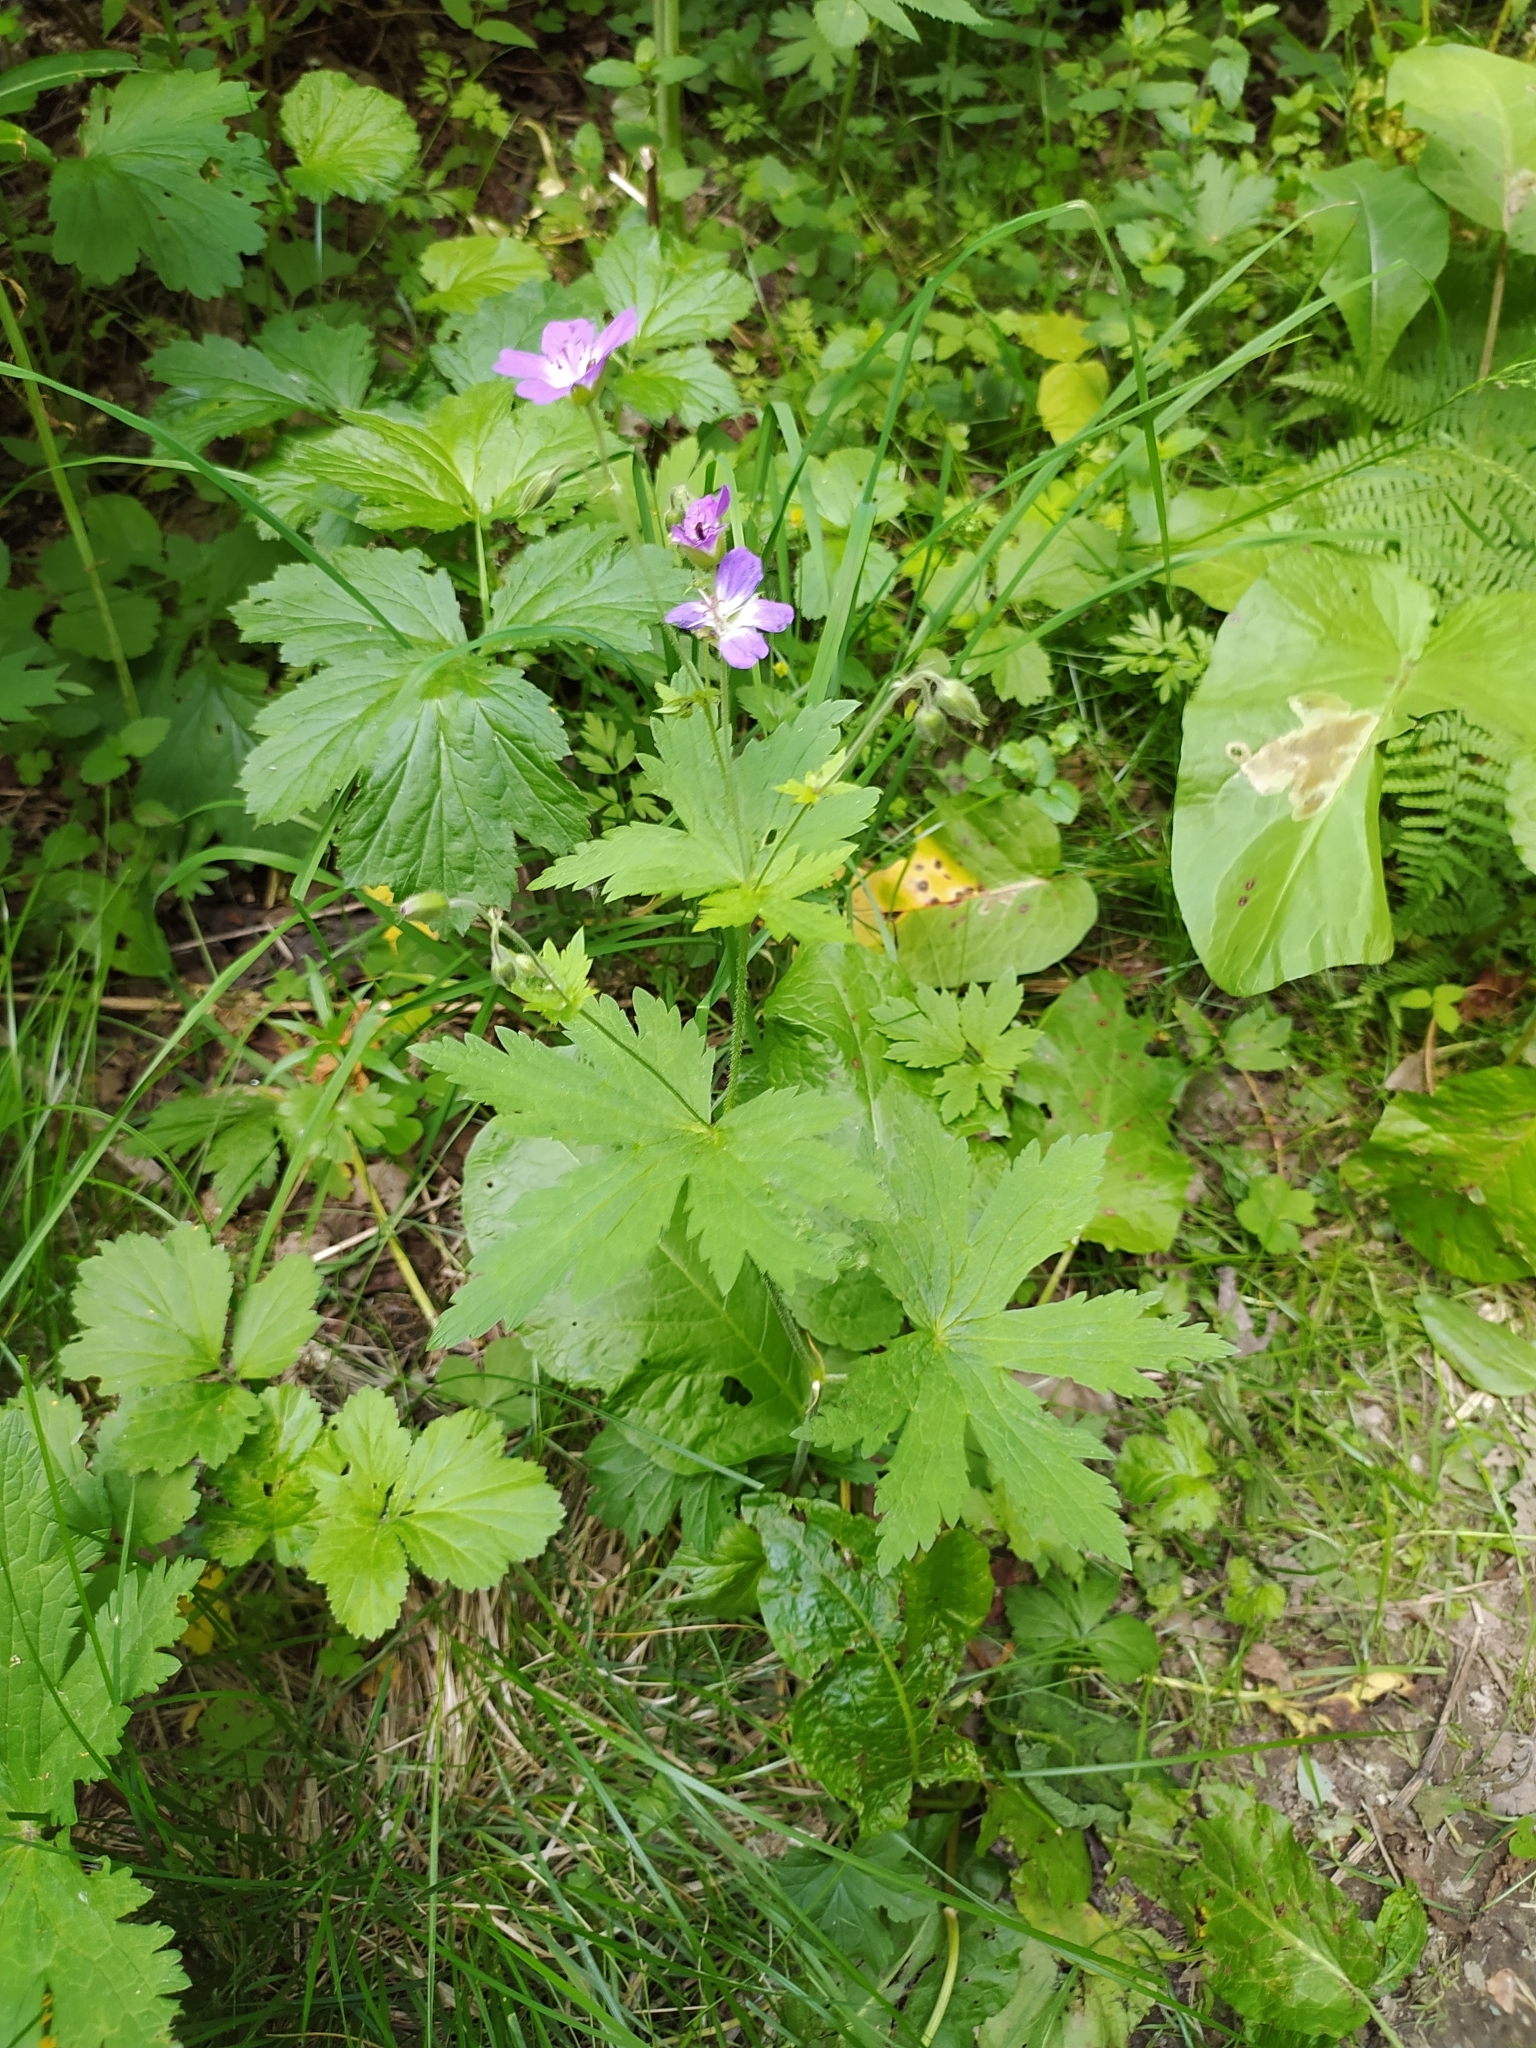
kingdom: Plantae
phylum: Tracheophyta
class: Magnoliopsida
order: Geraniales
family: Geraniaceae
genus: Geranium
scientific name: Geranium sylvaticum
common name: Wood crane's-bill
